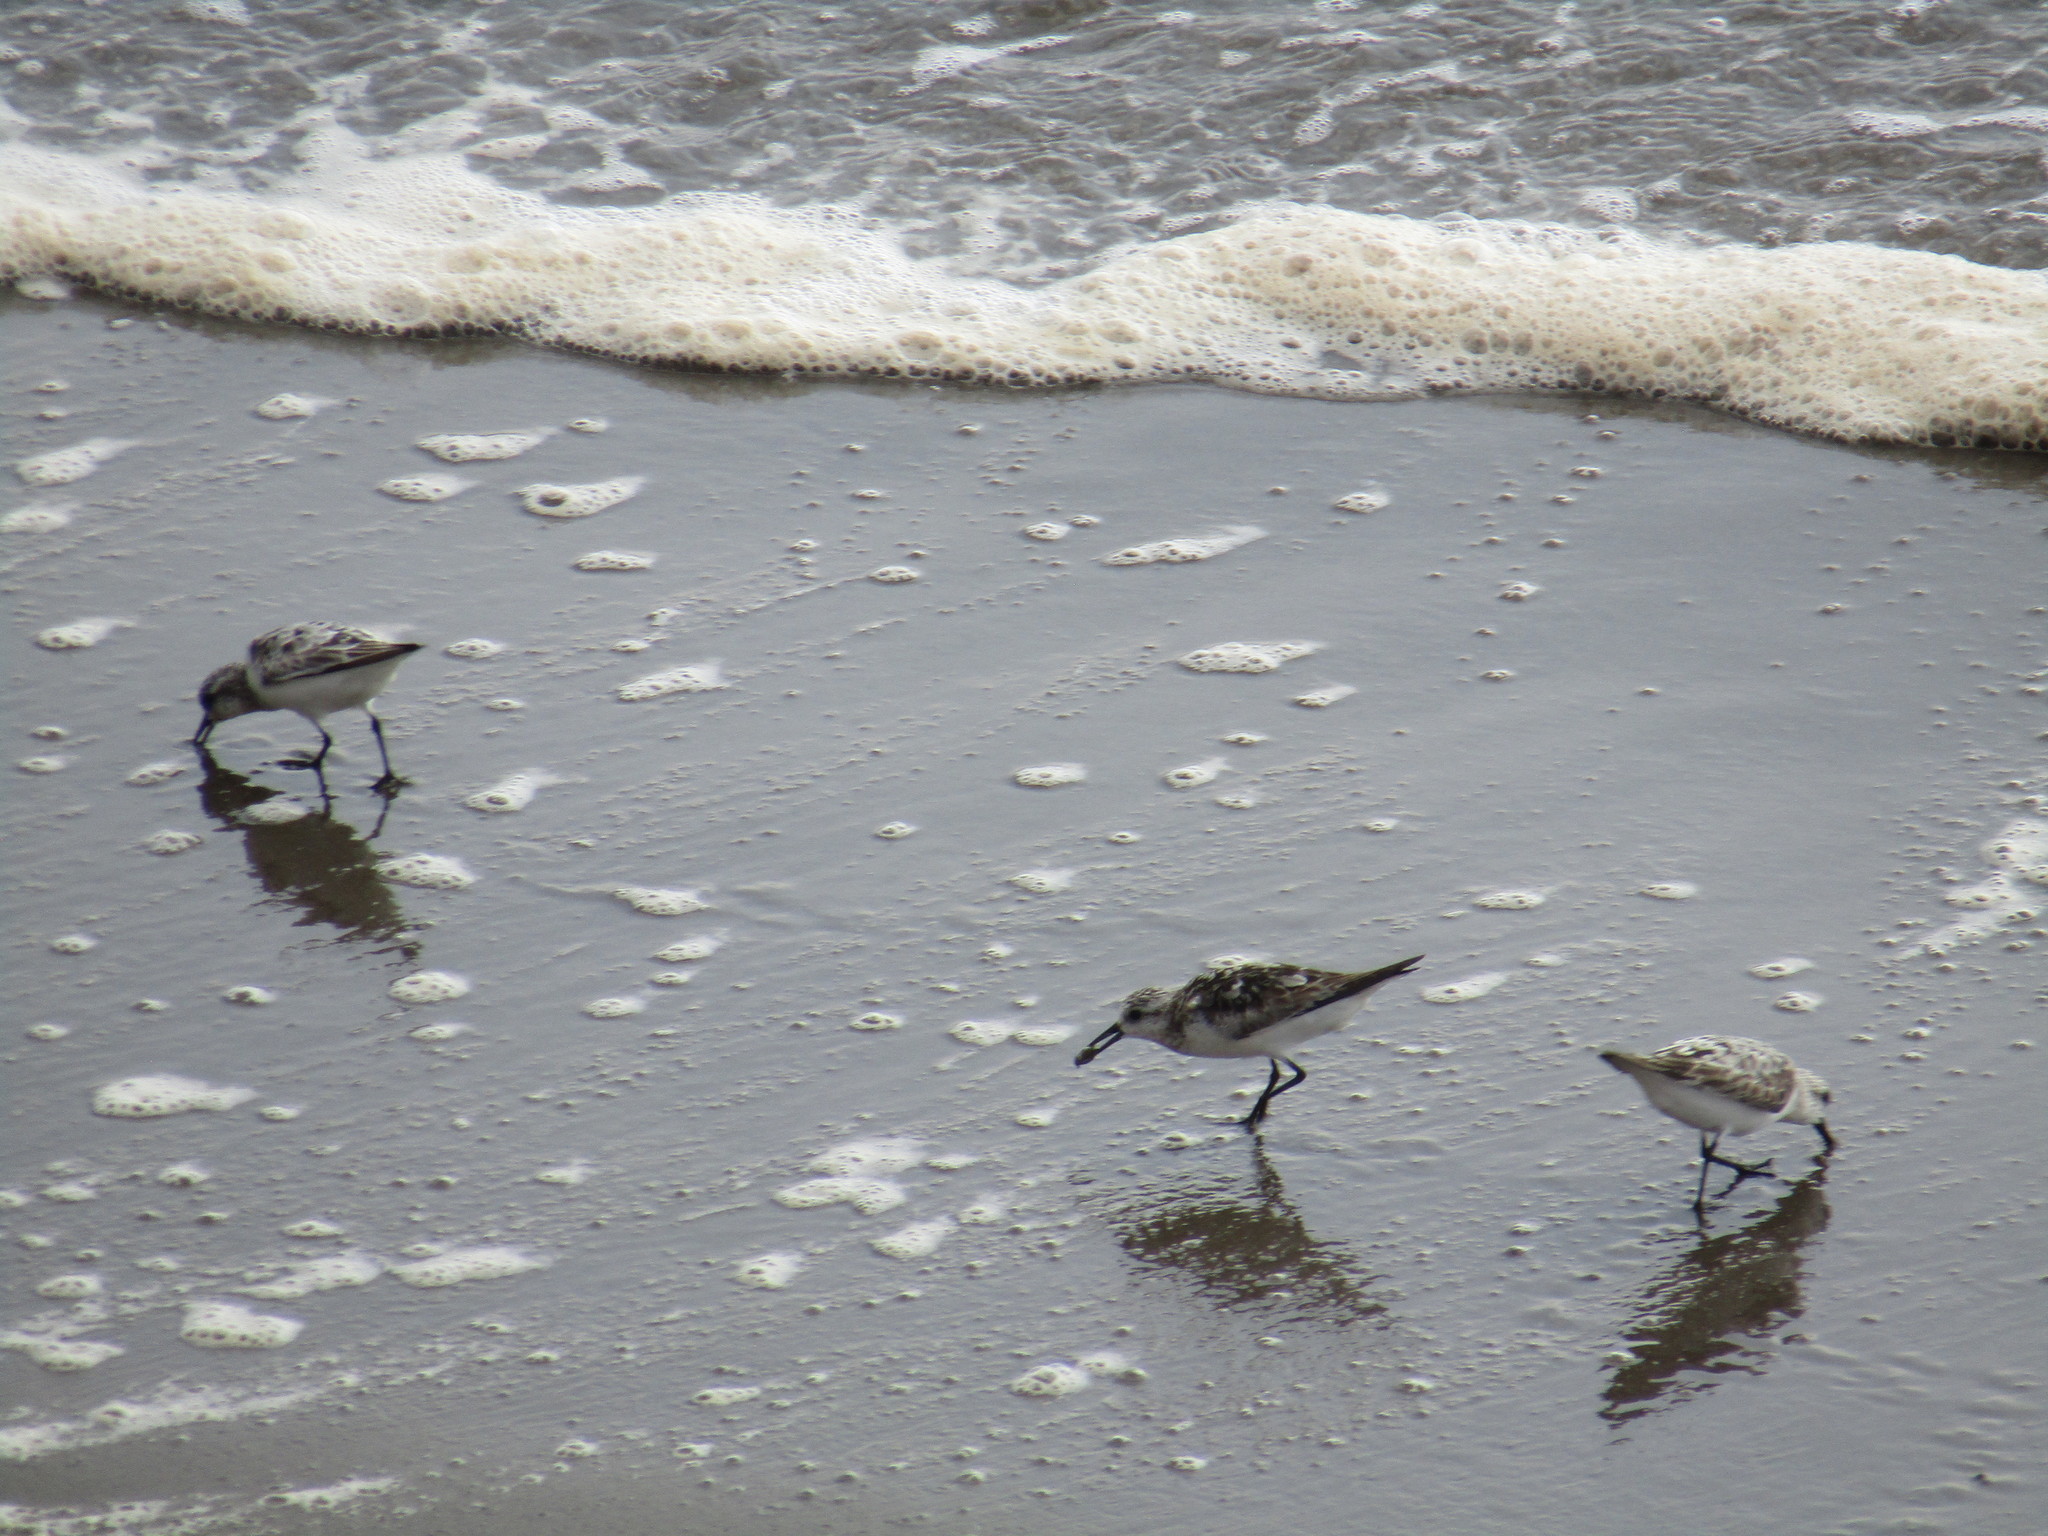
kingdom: Animalia
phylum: Chordata
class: Aves
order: Charadriiformes
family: Scolopacidae
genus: Calidris
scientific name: Calidris alba
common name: Sanderling
